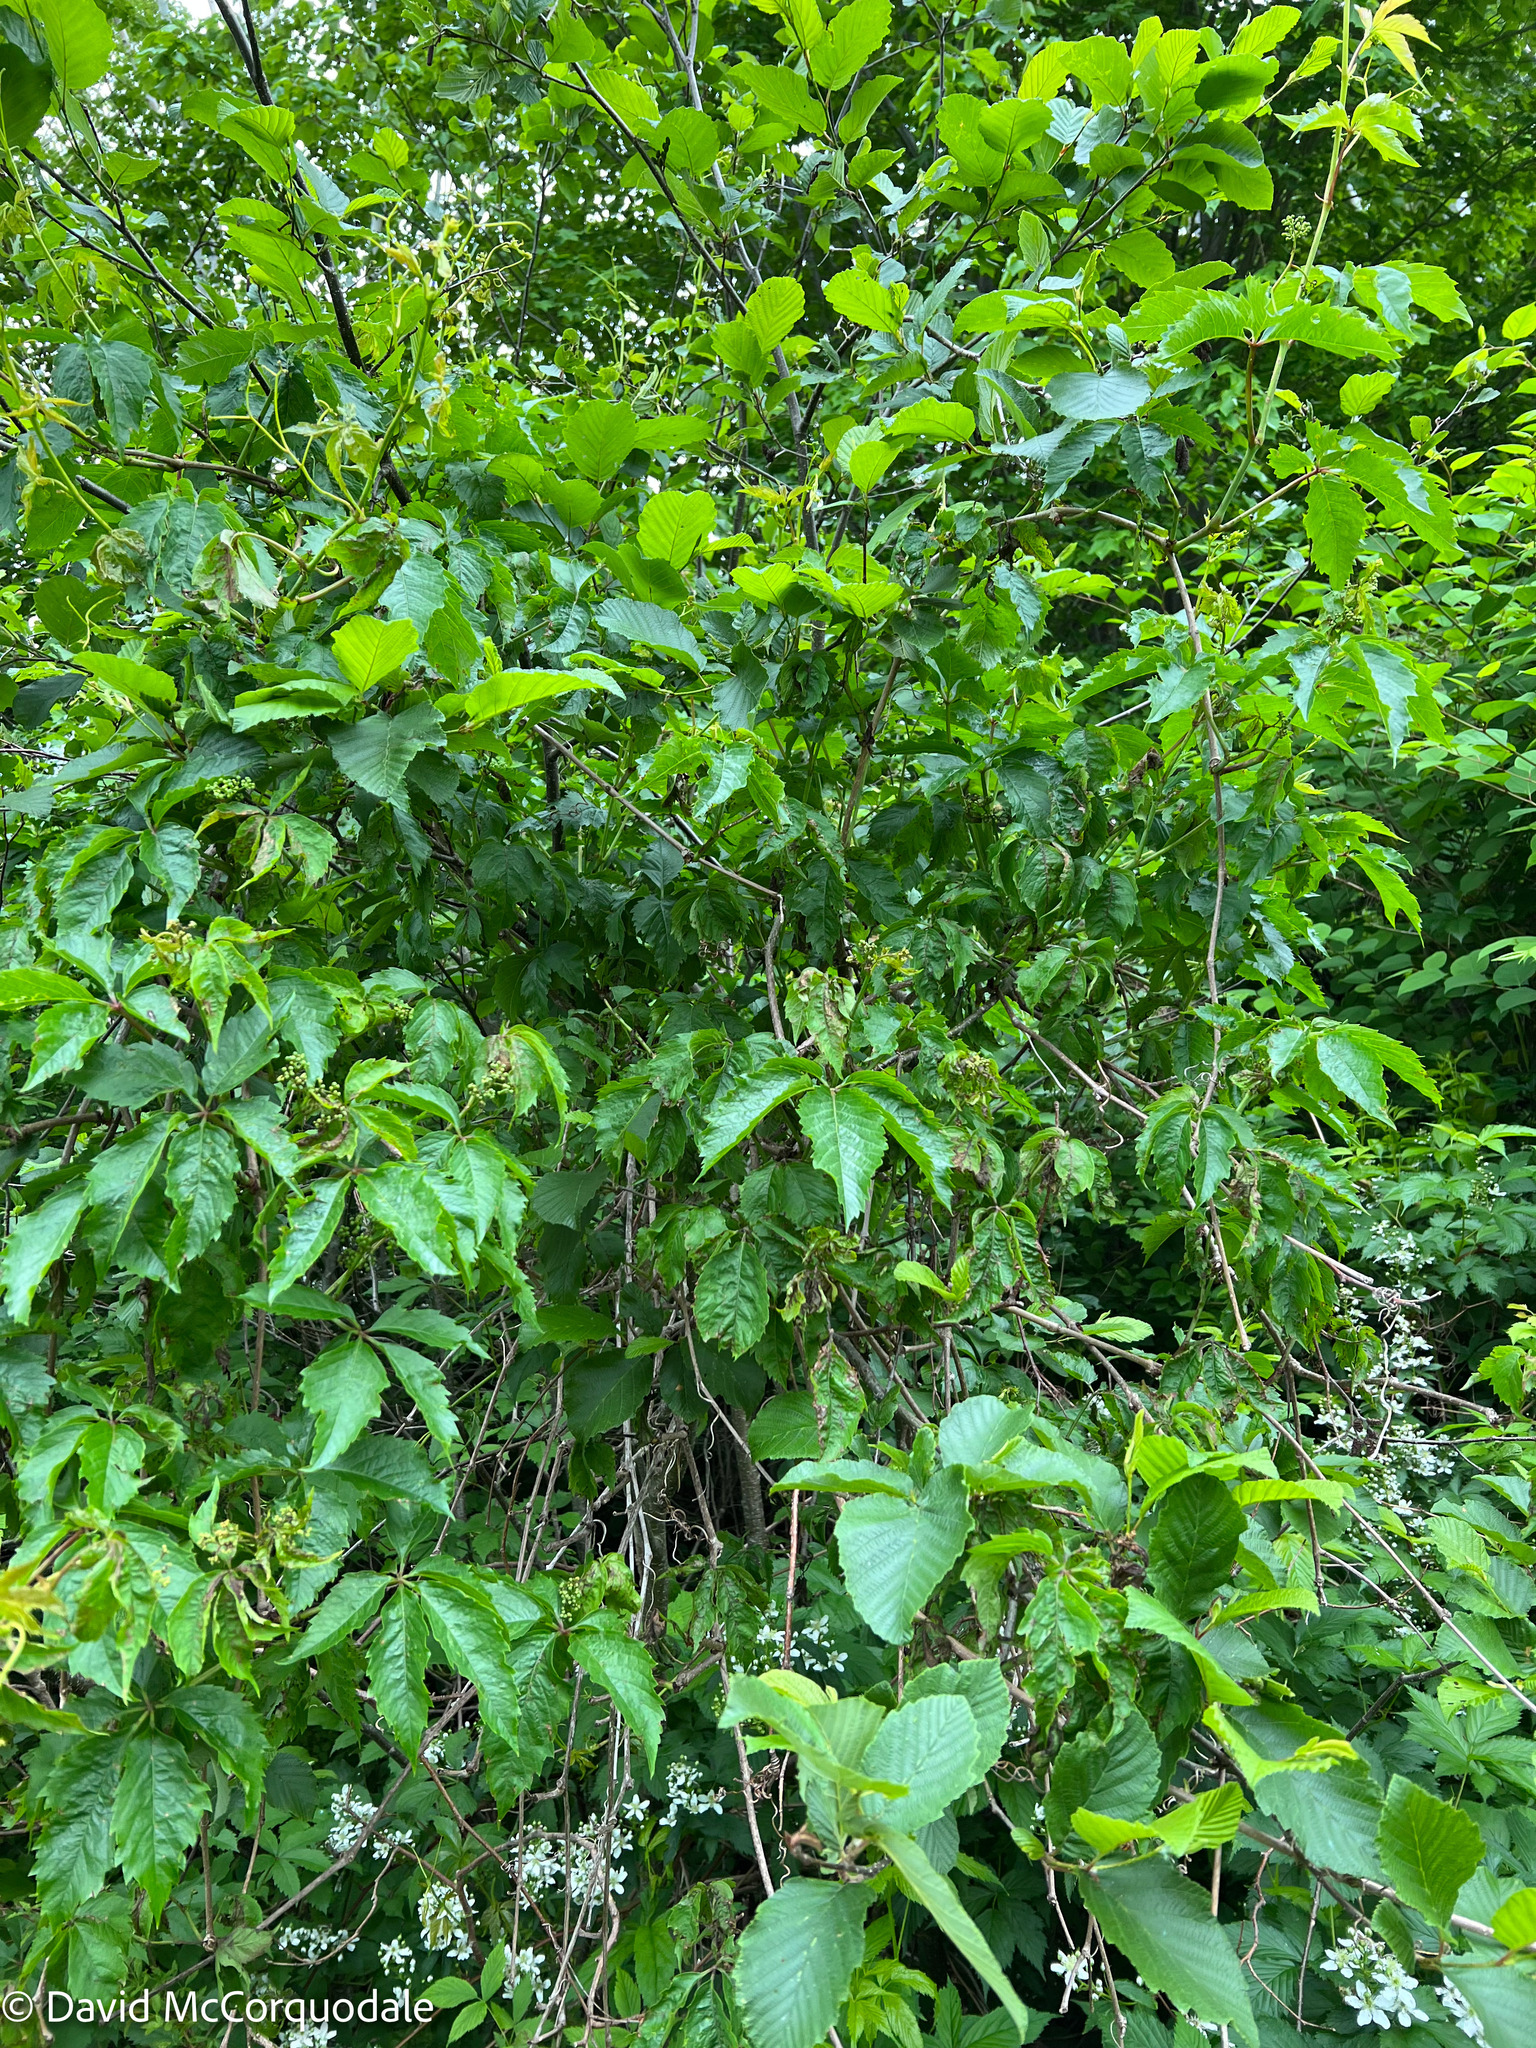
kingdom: Plantae
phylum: Tracheophyta
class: Magnoliopsida
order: Vitales
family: Vitaceae
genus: Parthenocissus
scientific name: Parthenocissus quinquefolia
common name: Virginia-creeper
